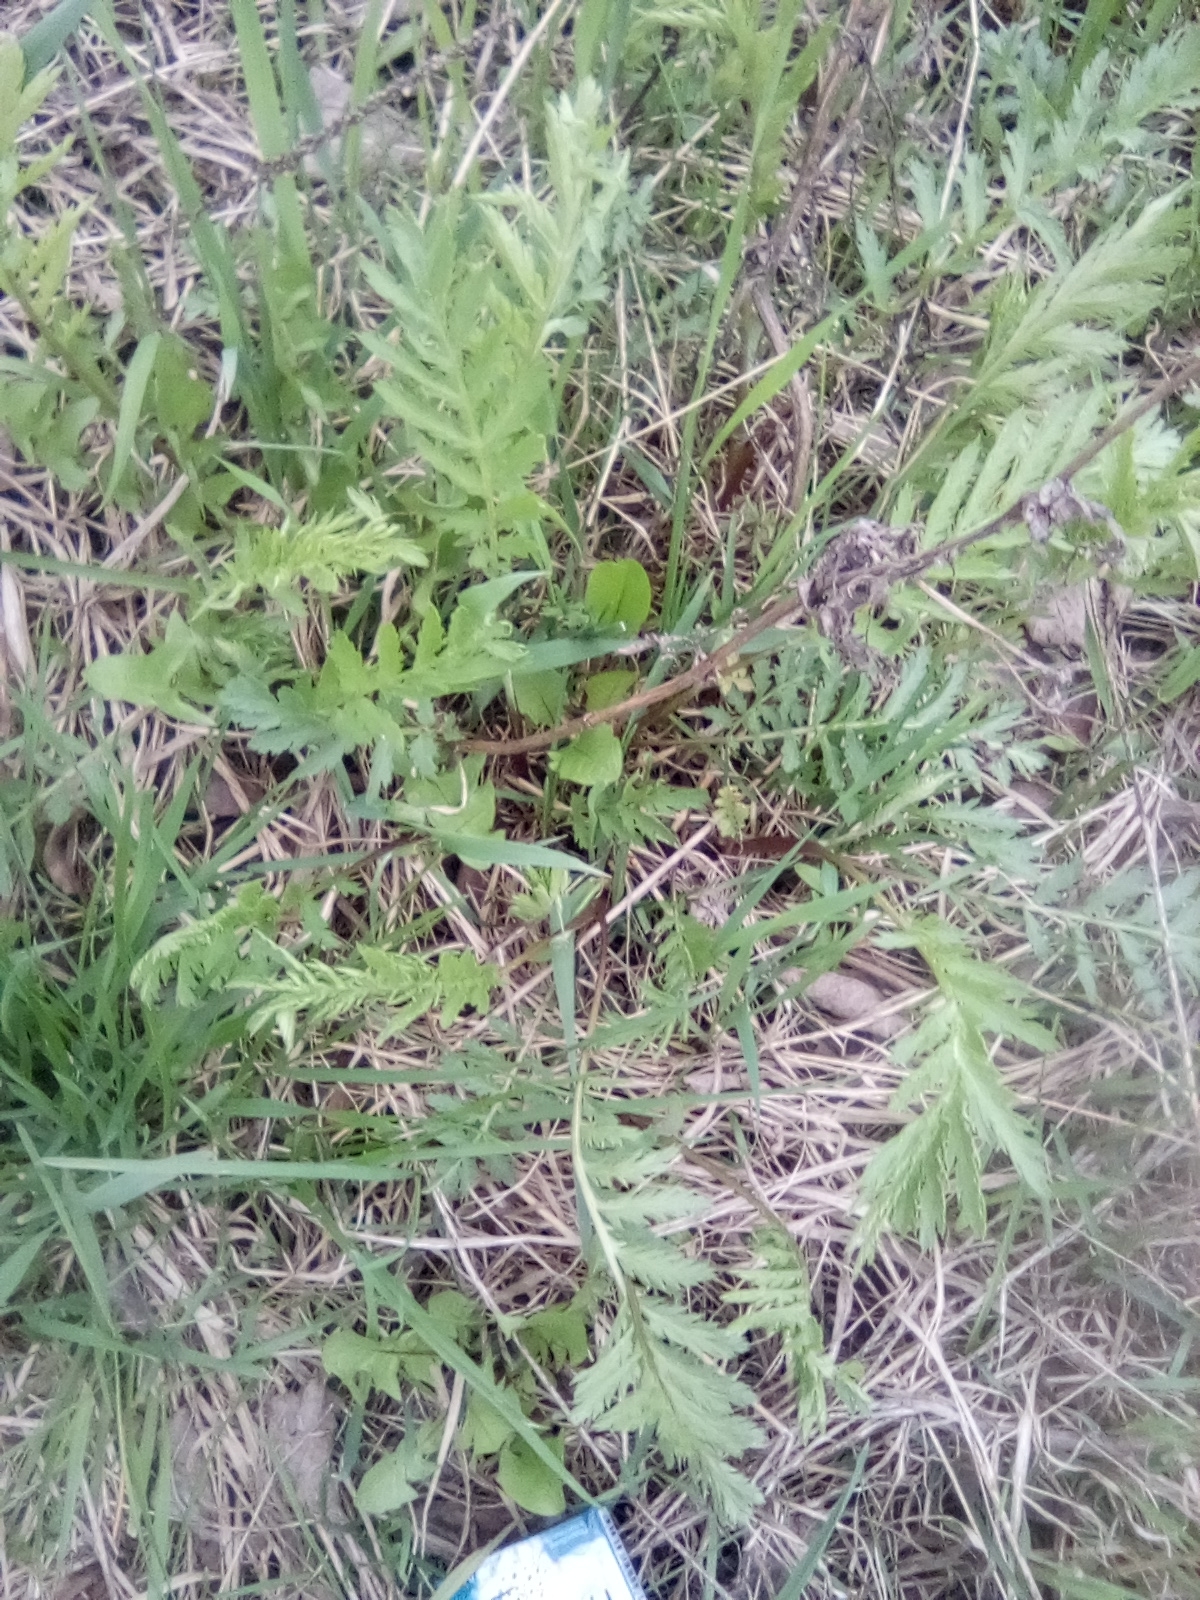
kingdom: Plantae
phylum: Tracheophyta
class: Magnoliopsida
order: Asterales
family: Asteraceae
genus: Tanacetum
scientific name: Tanacetum vulgare
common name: Common tansy
